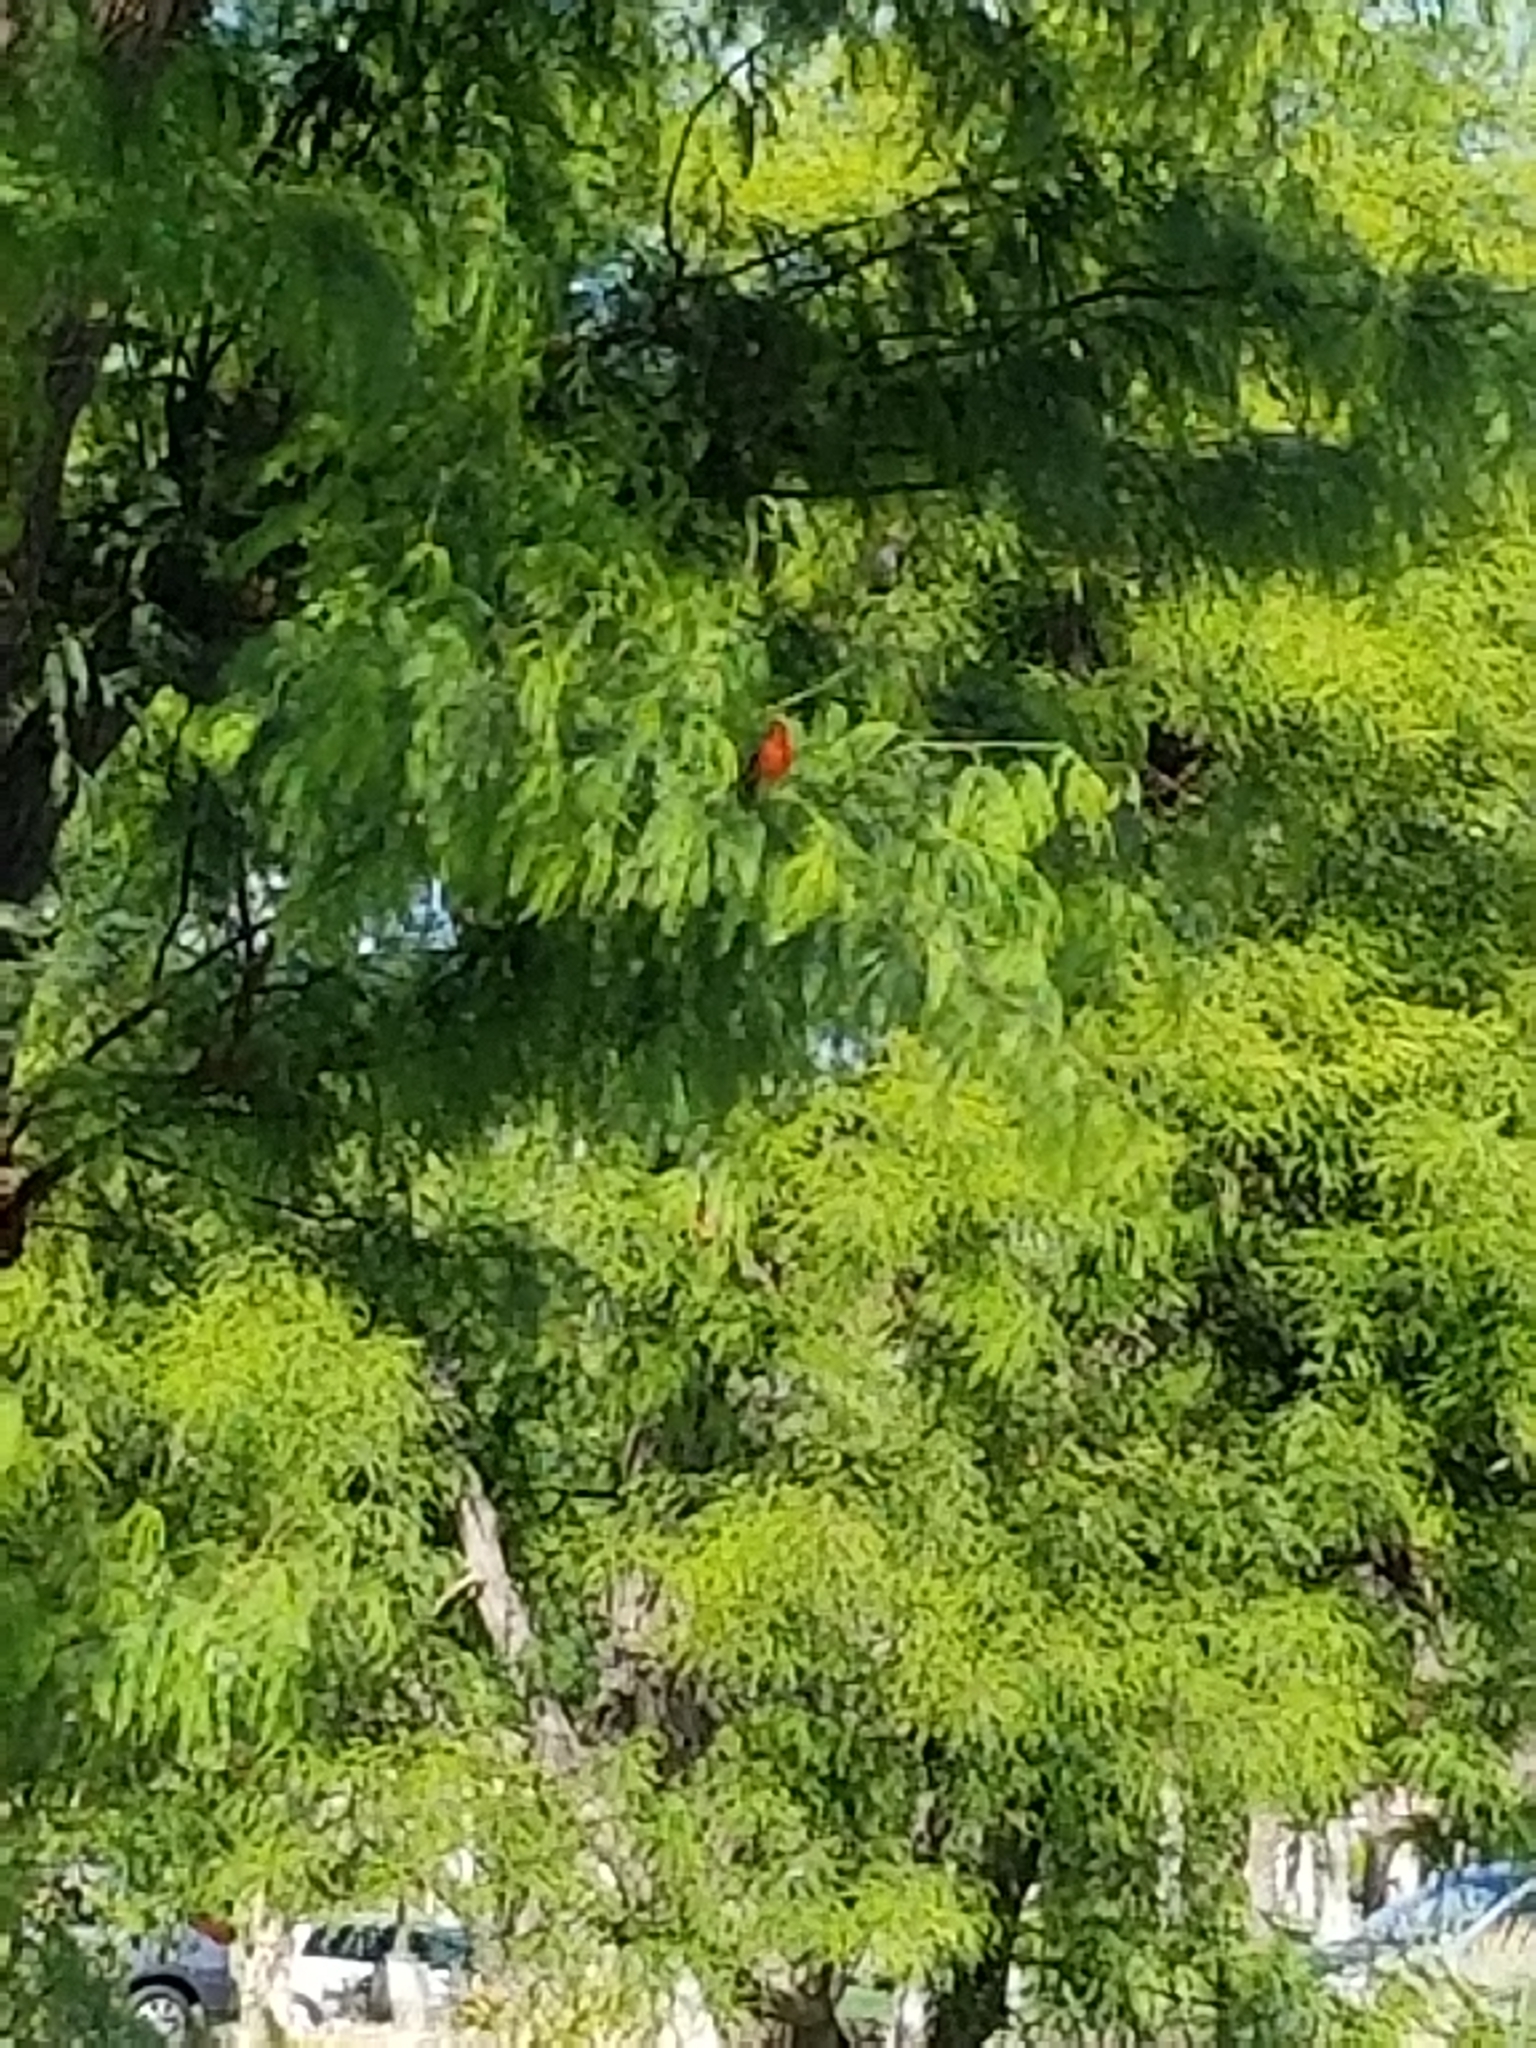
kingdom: Animalia
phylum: Chordata
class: Aves
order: Passeriformes
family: Tyrannidae
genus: Pyrocephalus
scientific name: Pyrocephalus rubinus
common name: Vermilion flycatcher
